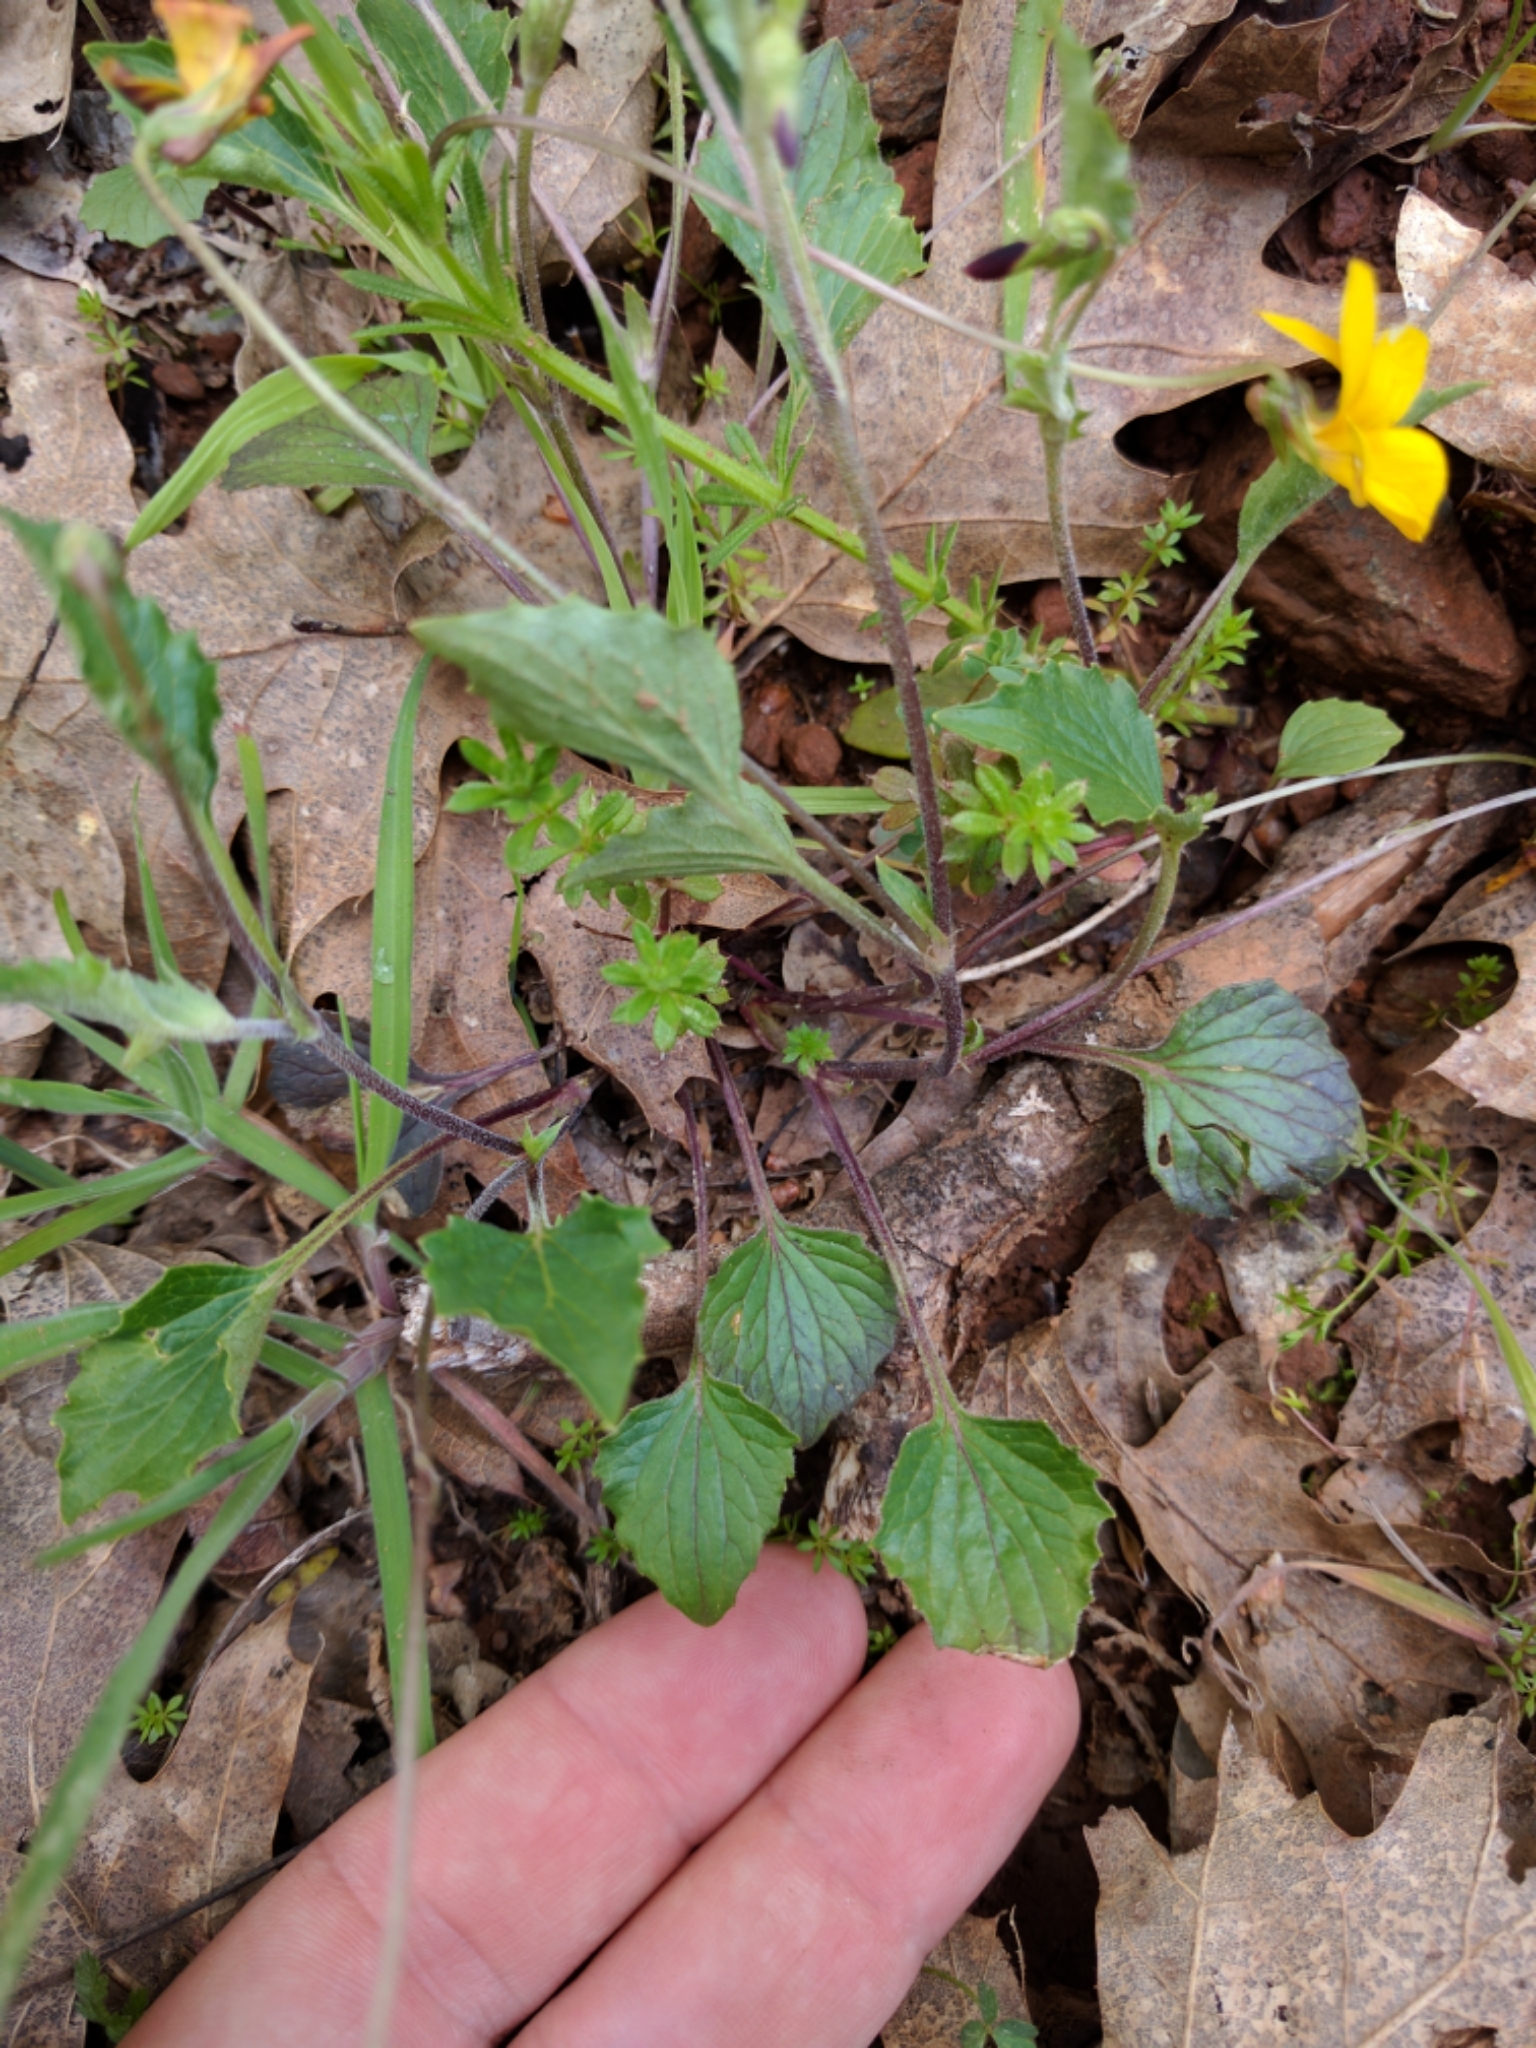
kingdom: Plantae
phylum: Tracheophyta
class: Magnoliopsida
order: Malpighiales
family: Violaceae
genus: Viola
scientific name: Viola purpurea
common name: Pine violet
